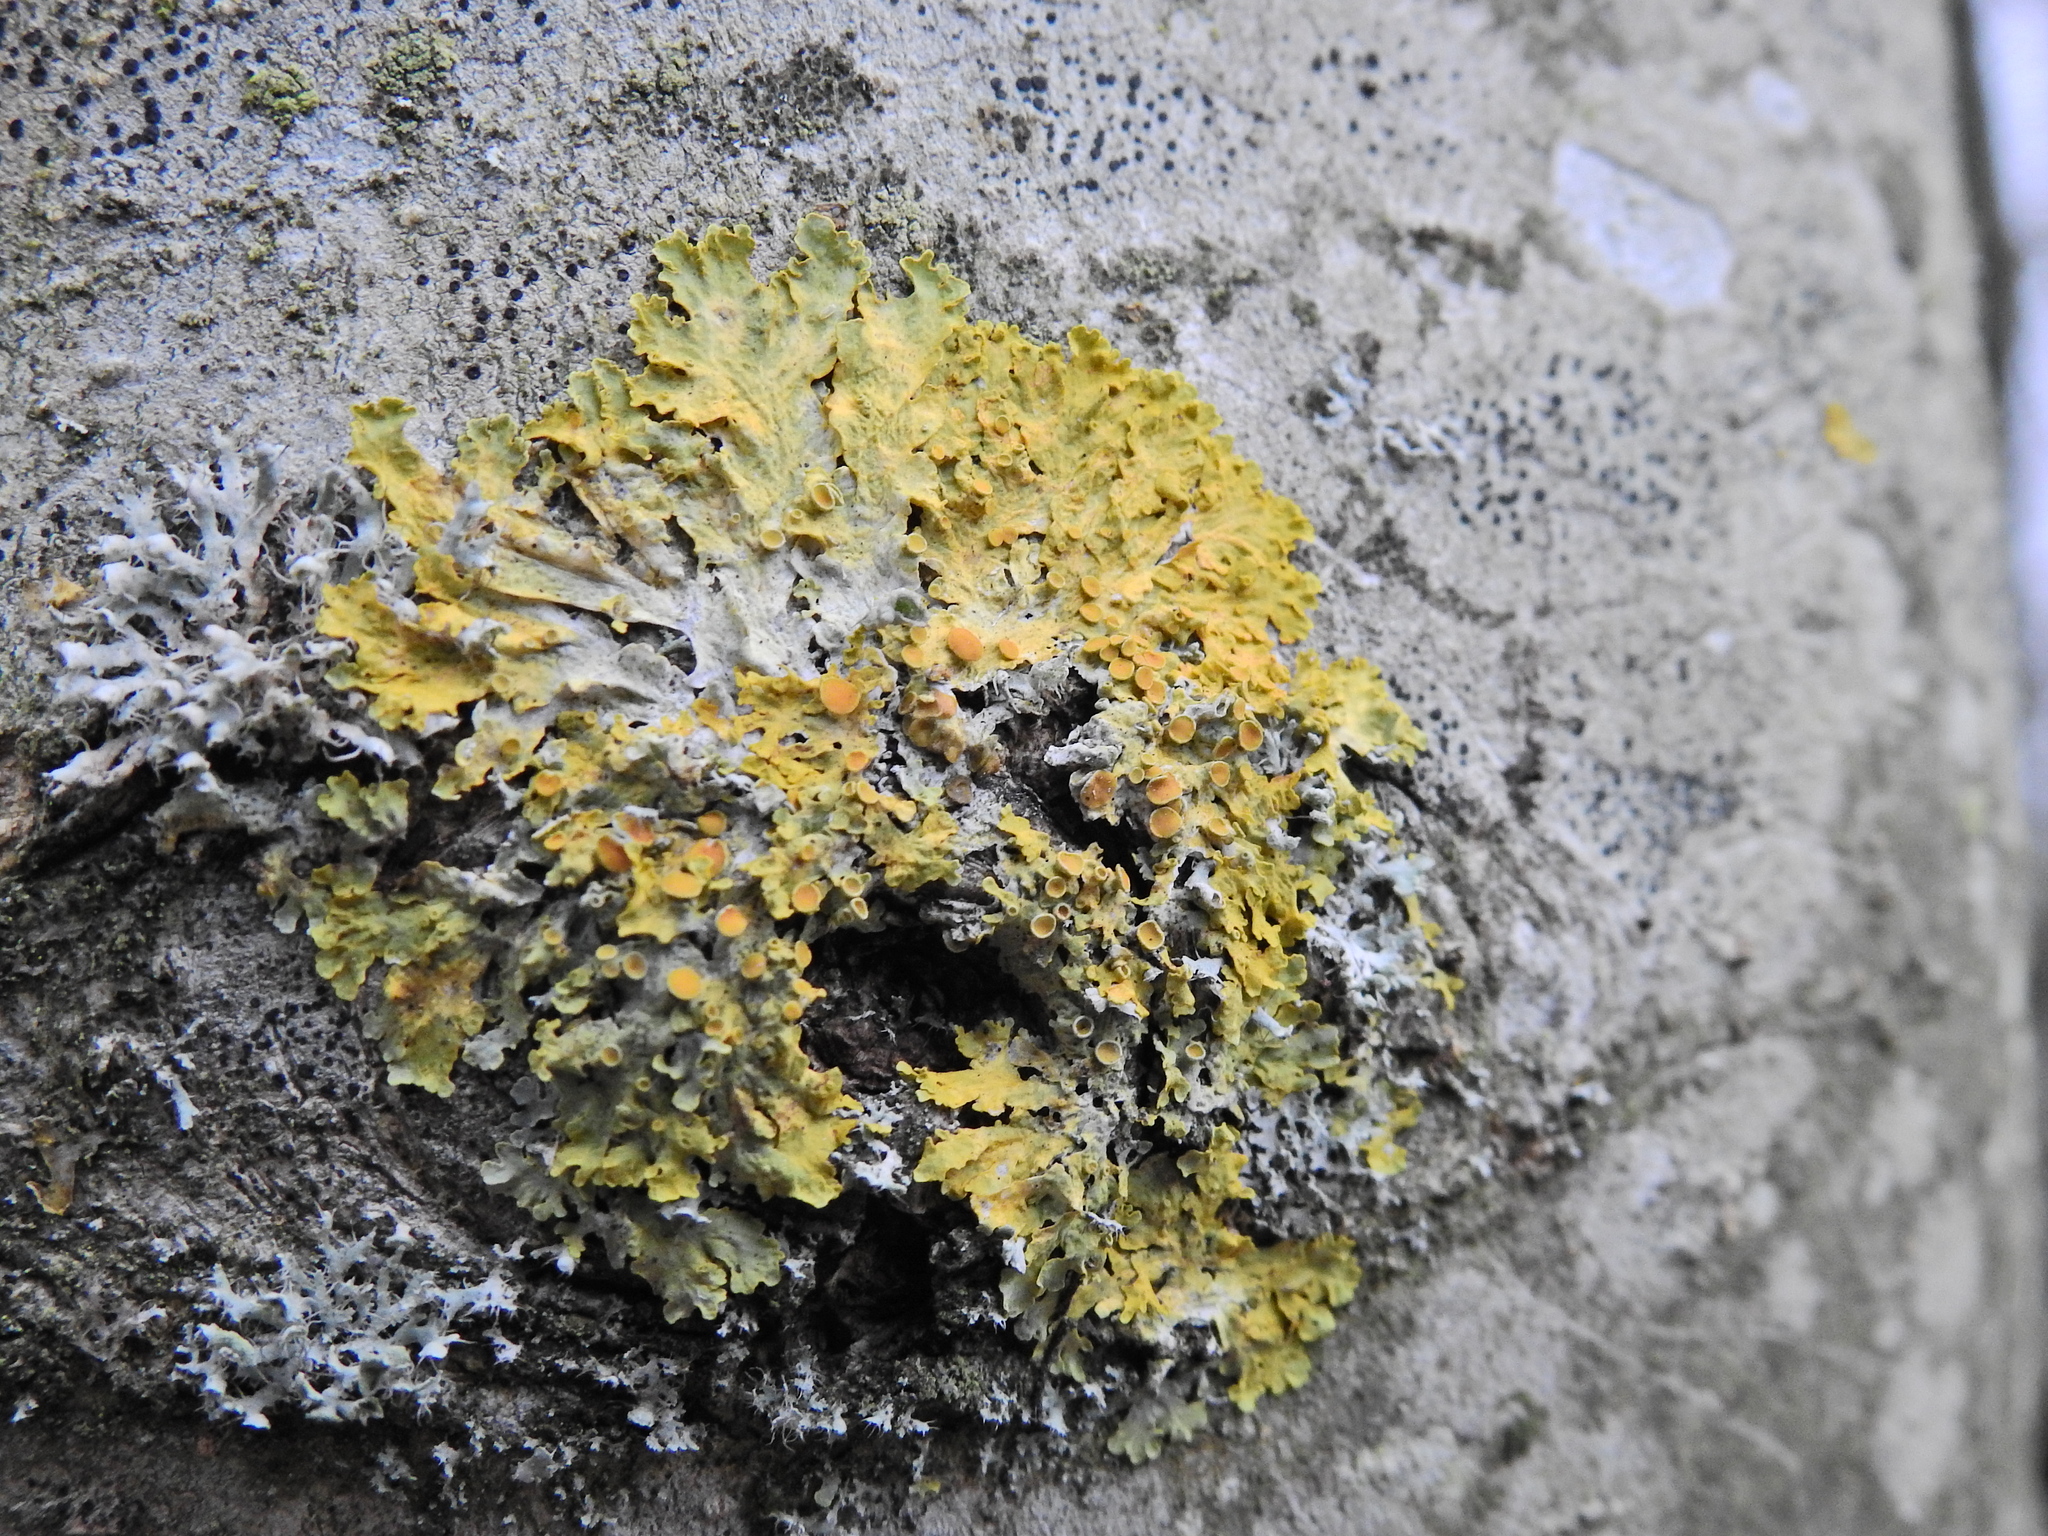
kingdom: Fungi
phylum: Ascomycota
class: Lecanoromycetes
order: Teloschistales
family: Teloschistaceae
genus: Xanthoria
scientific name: Xanthoria parietina
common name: Common orange lichen
